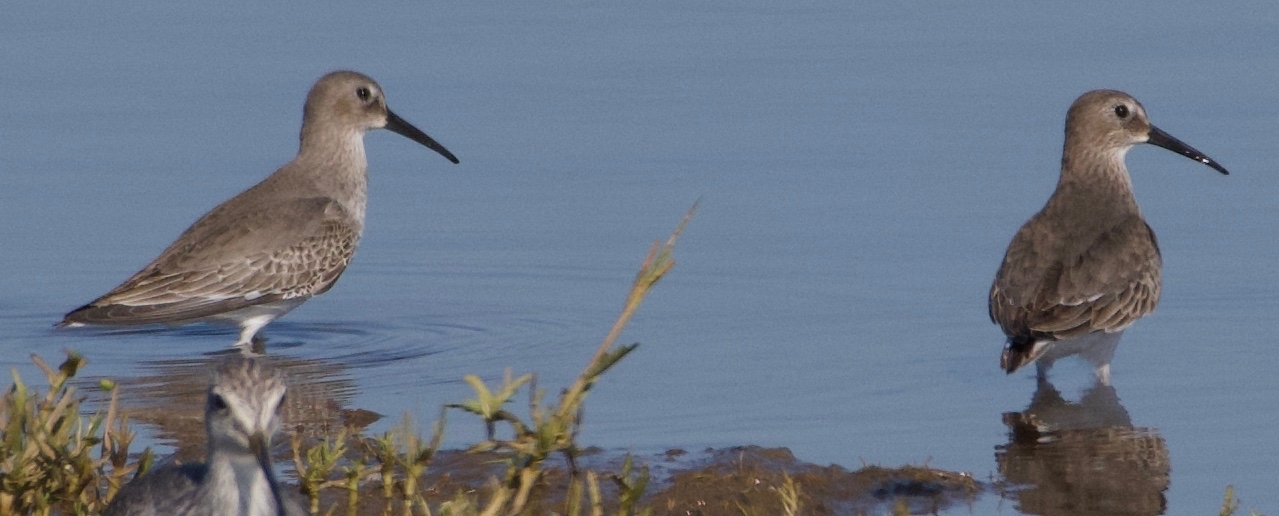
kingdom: Animalia
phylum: Chordata
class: Aves
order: Charadriiformes
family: Scolopacidae
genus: Calidris
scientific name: Calidris alpina
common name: Dunlin
